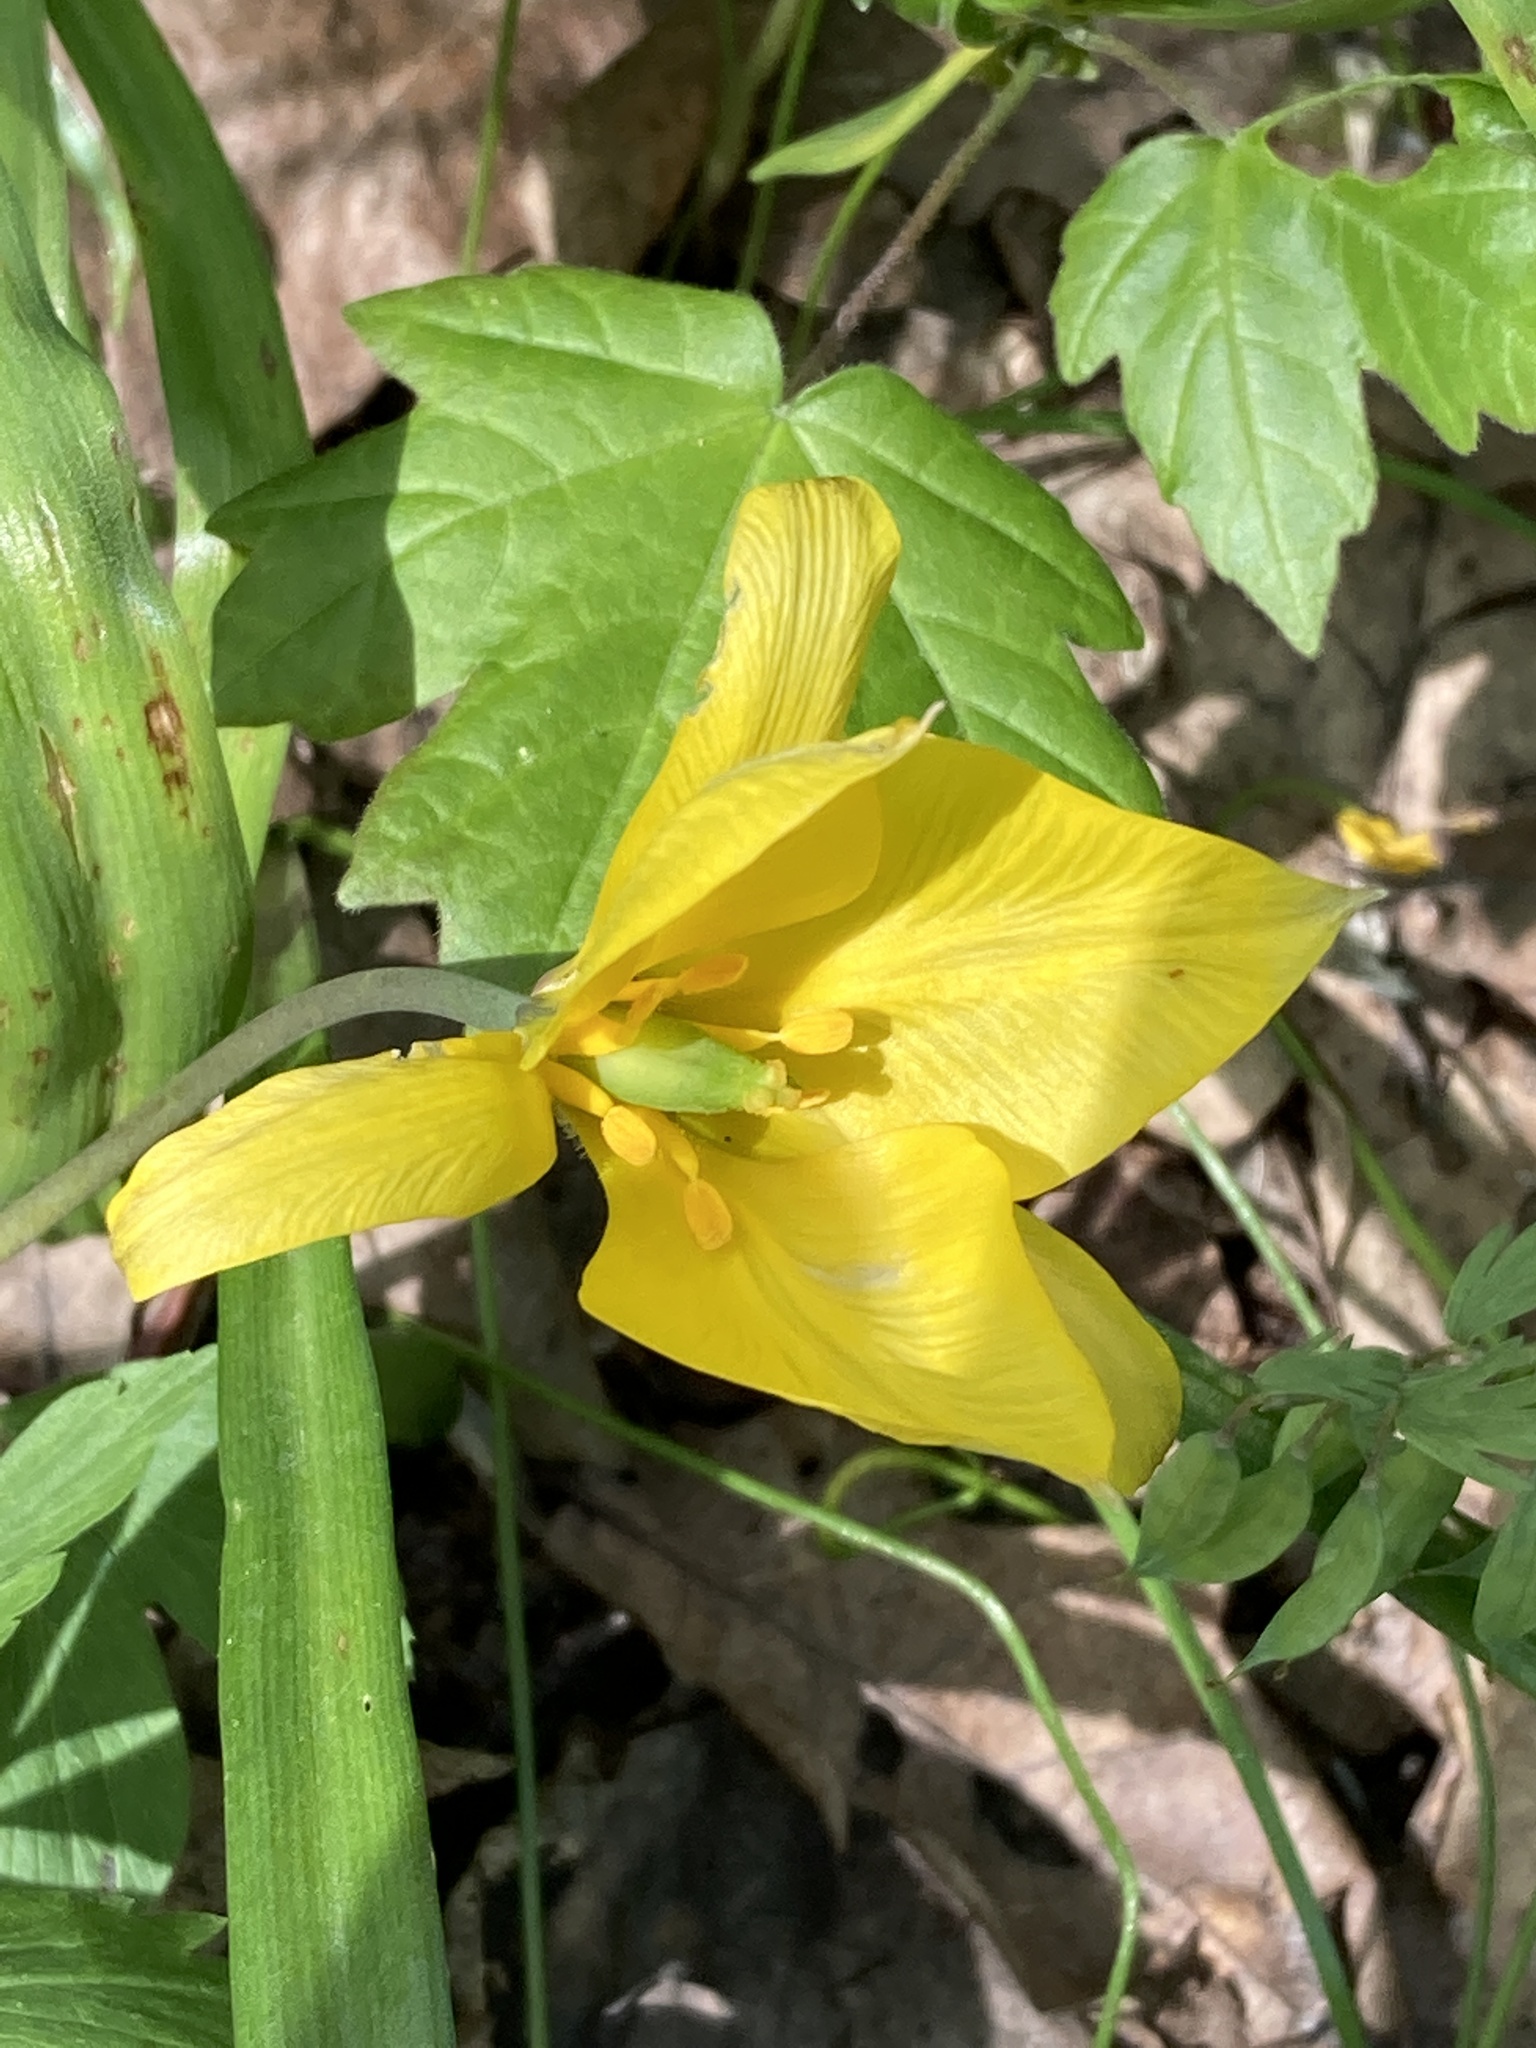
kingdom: Plantae
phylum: Tracheophyta
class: Liliopsida
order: Liliales
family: Liliaceae
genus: Tulipa
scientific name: Tulipa sylvestris
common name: Wild tulip
